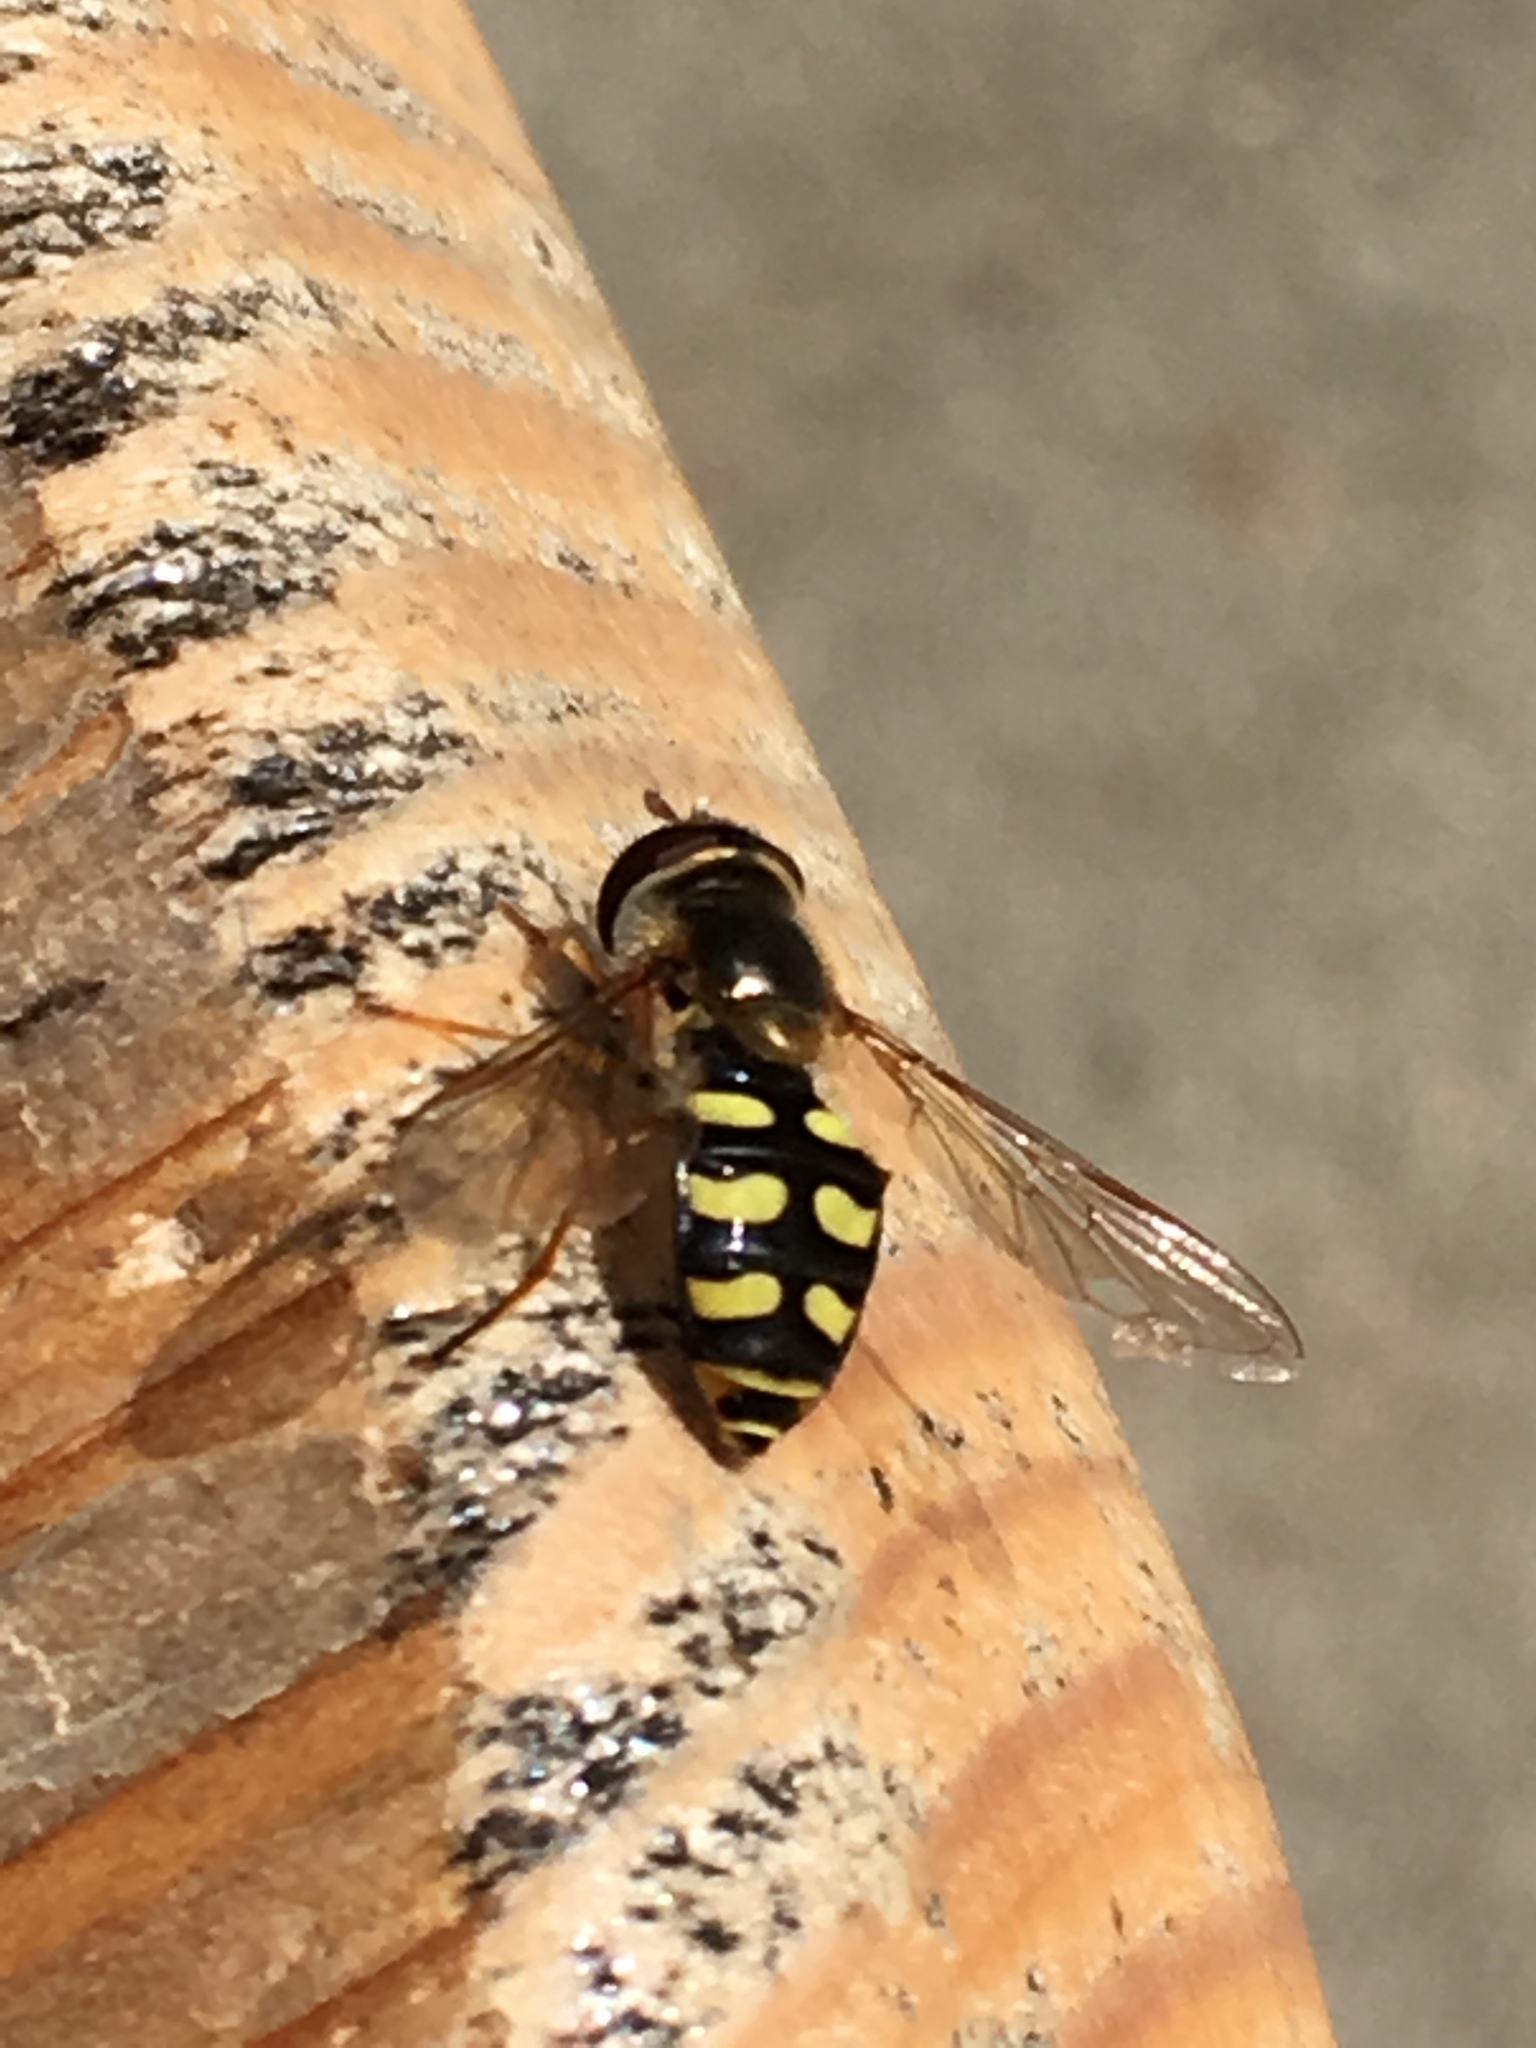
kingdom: Animalia
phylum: Arthropoda
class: Insecta
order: Diptera
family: Syrphidae
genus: Eupeodes
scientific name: Eupeodes luniger
